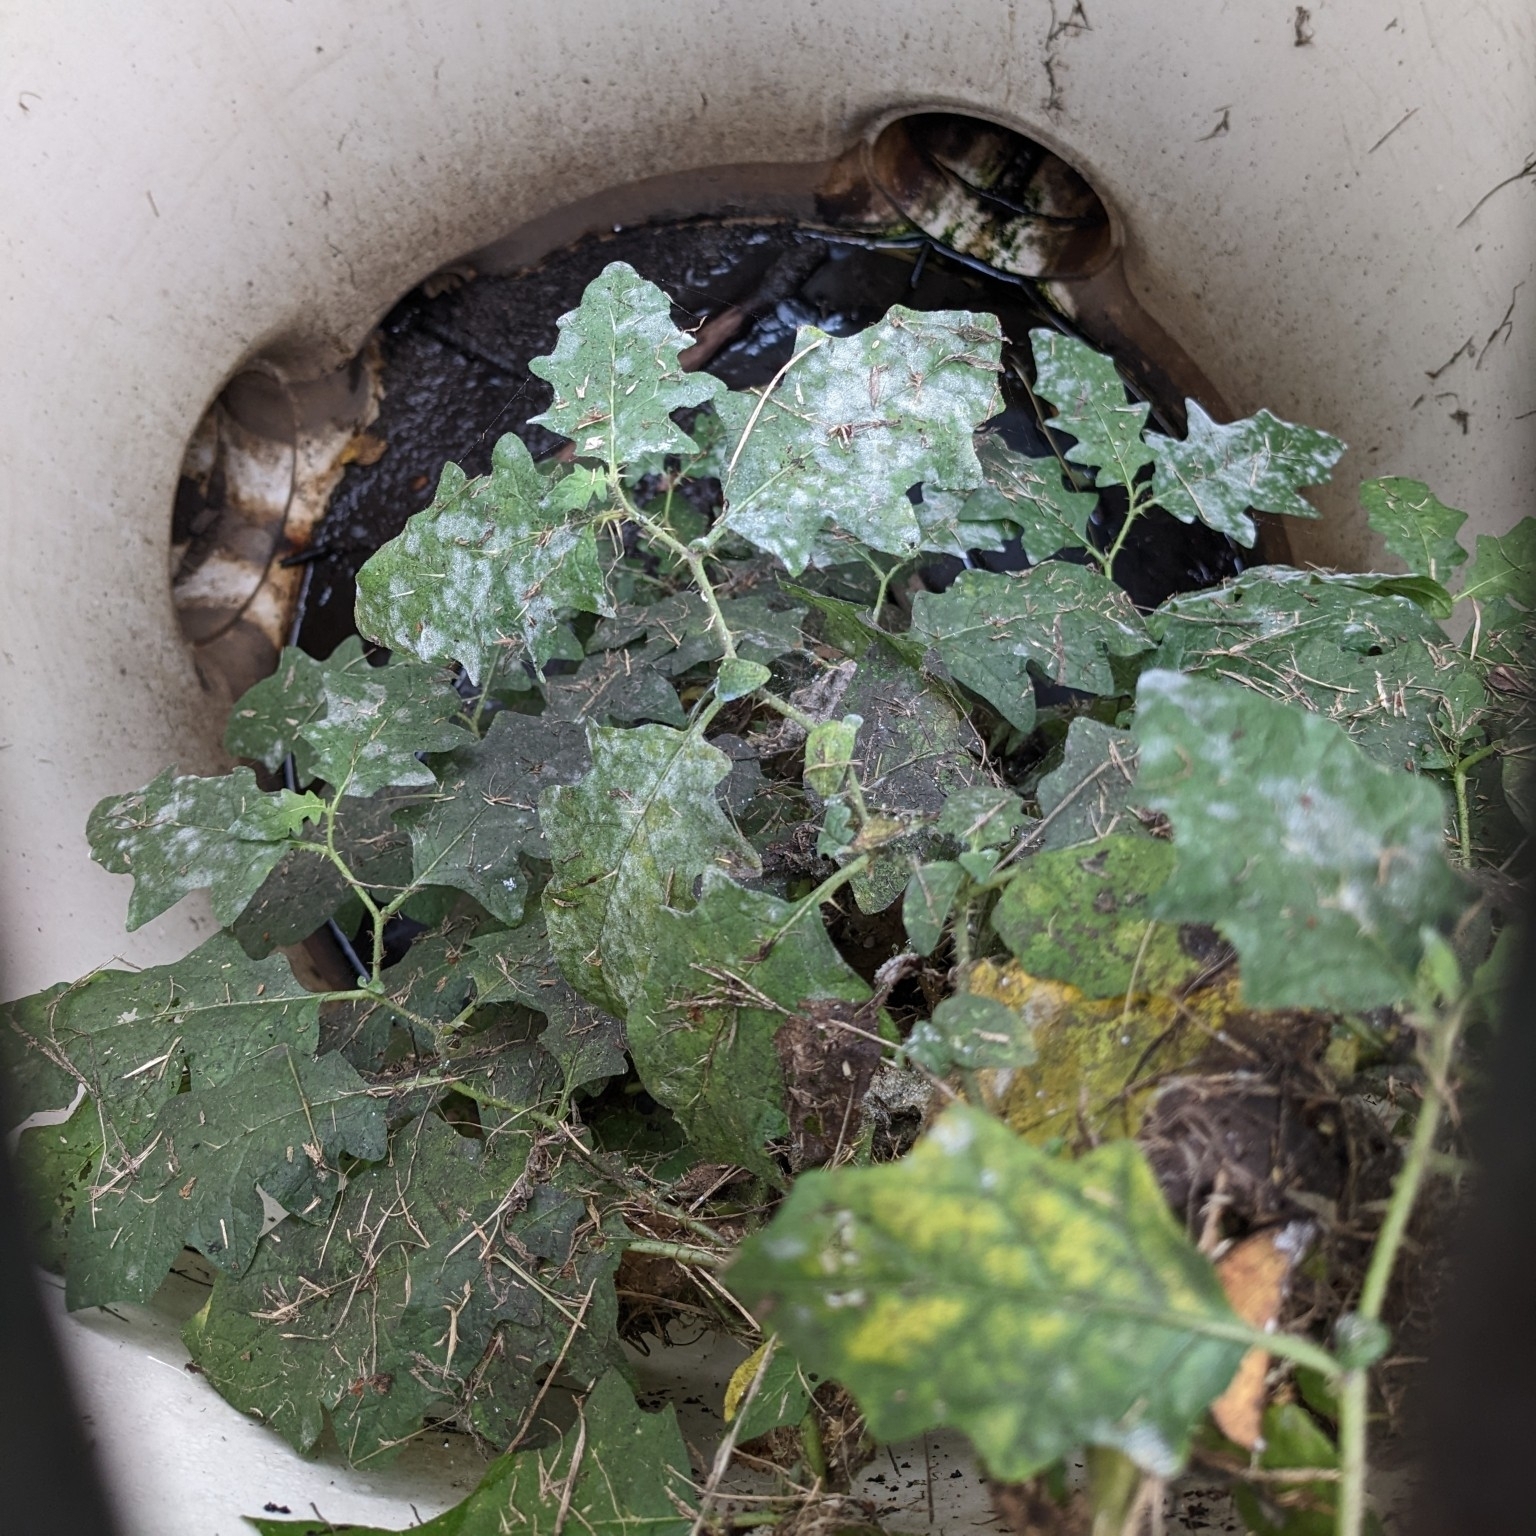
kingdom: Plantae
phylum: Tracheophyta
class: Magnoliopsida
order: Solanales
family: Solanaceae
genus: Solanum
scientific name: Solanum carolinense
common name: Horse-nettle
